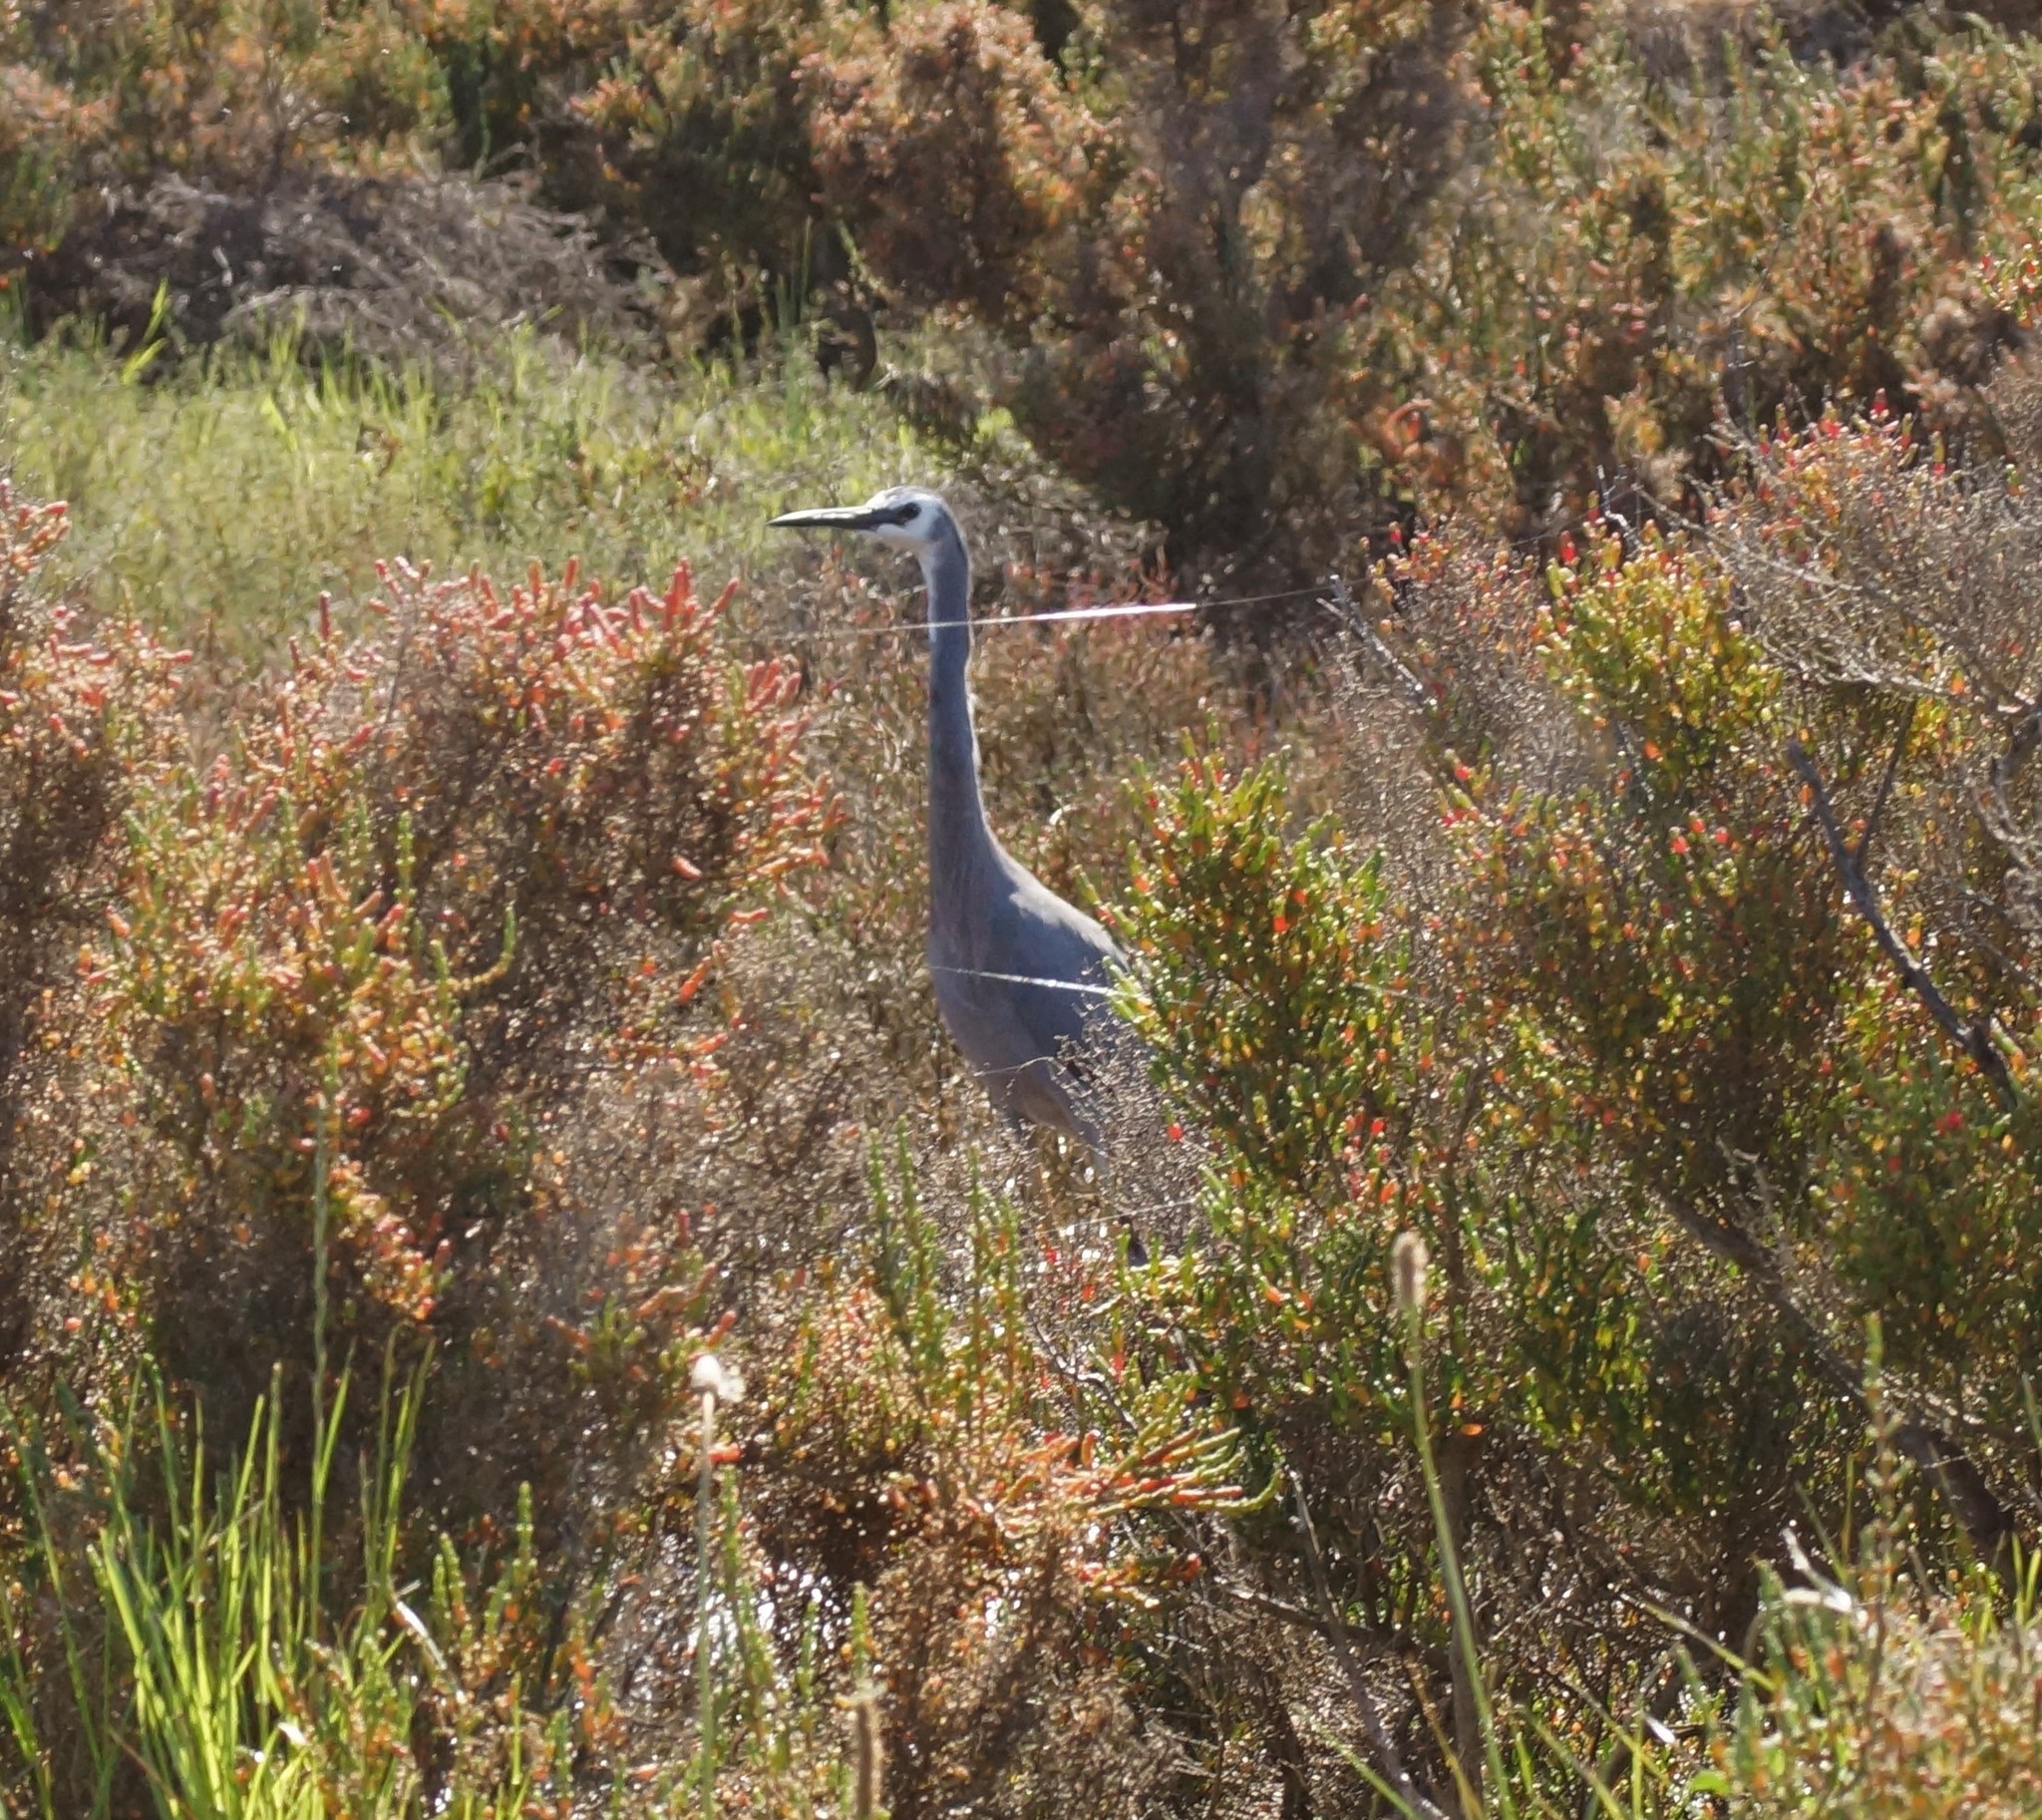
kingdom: Animalia
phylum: Chordata
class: Aves
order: Pelecaniformes
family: Ardeidae
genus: Egretta
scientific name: Egretta novaehollandiae
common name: White-faced heron
